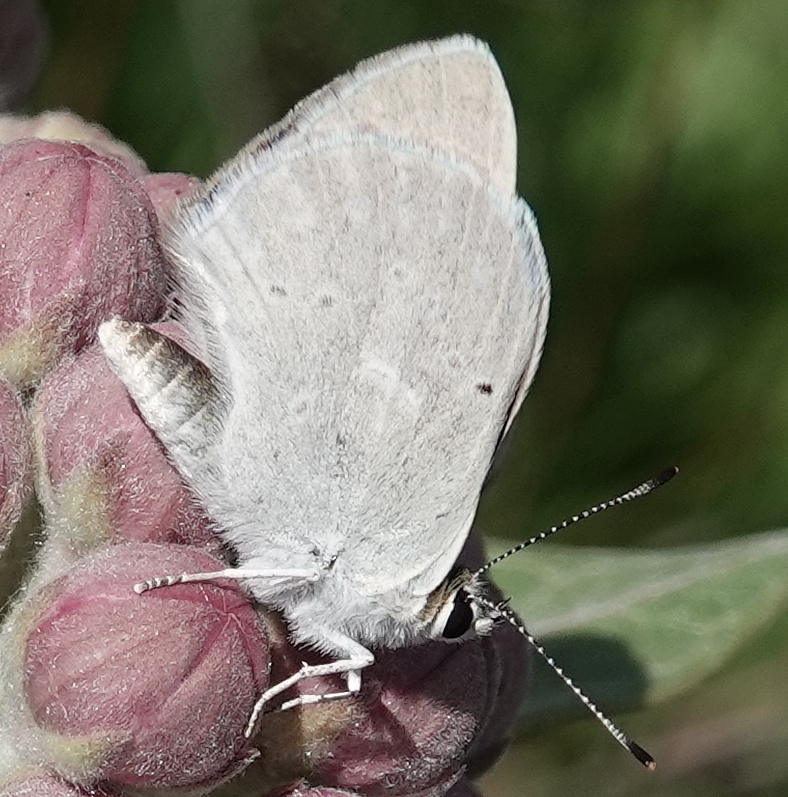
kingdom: Animalia
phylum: Arthropoda
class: Insecta
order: Lepidoptera
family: Lycaenidae
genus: Tharsalea
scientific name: Tharsalea rubidus
